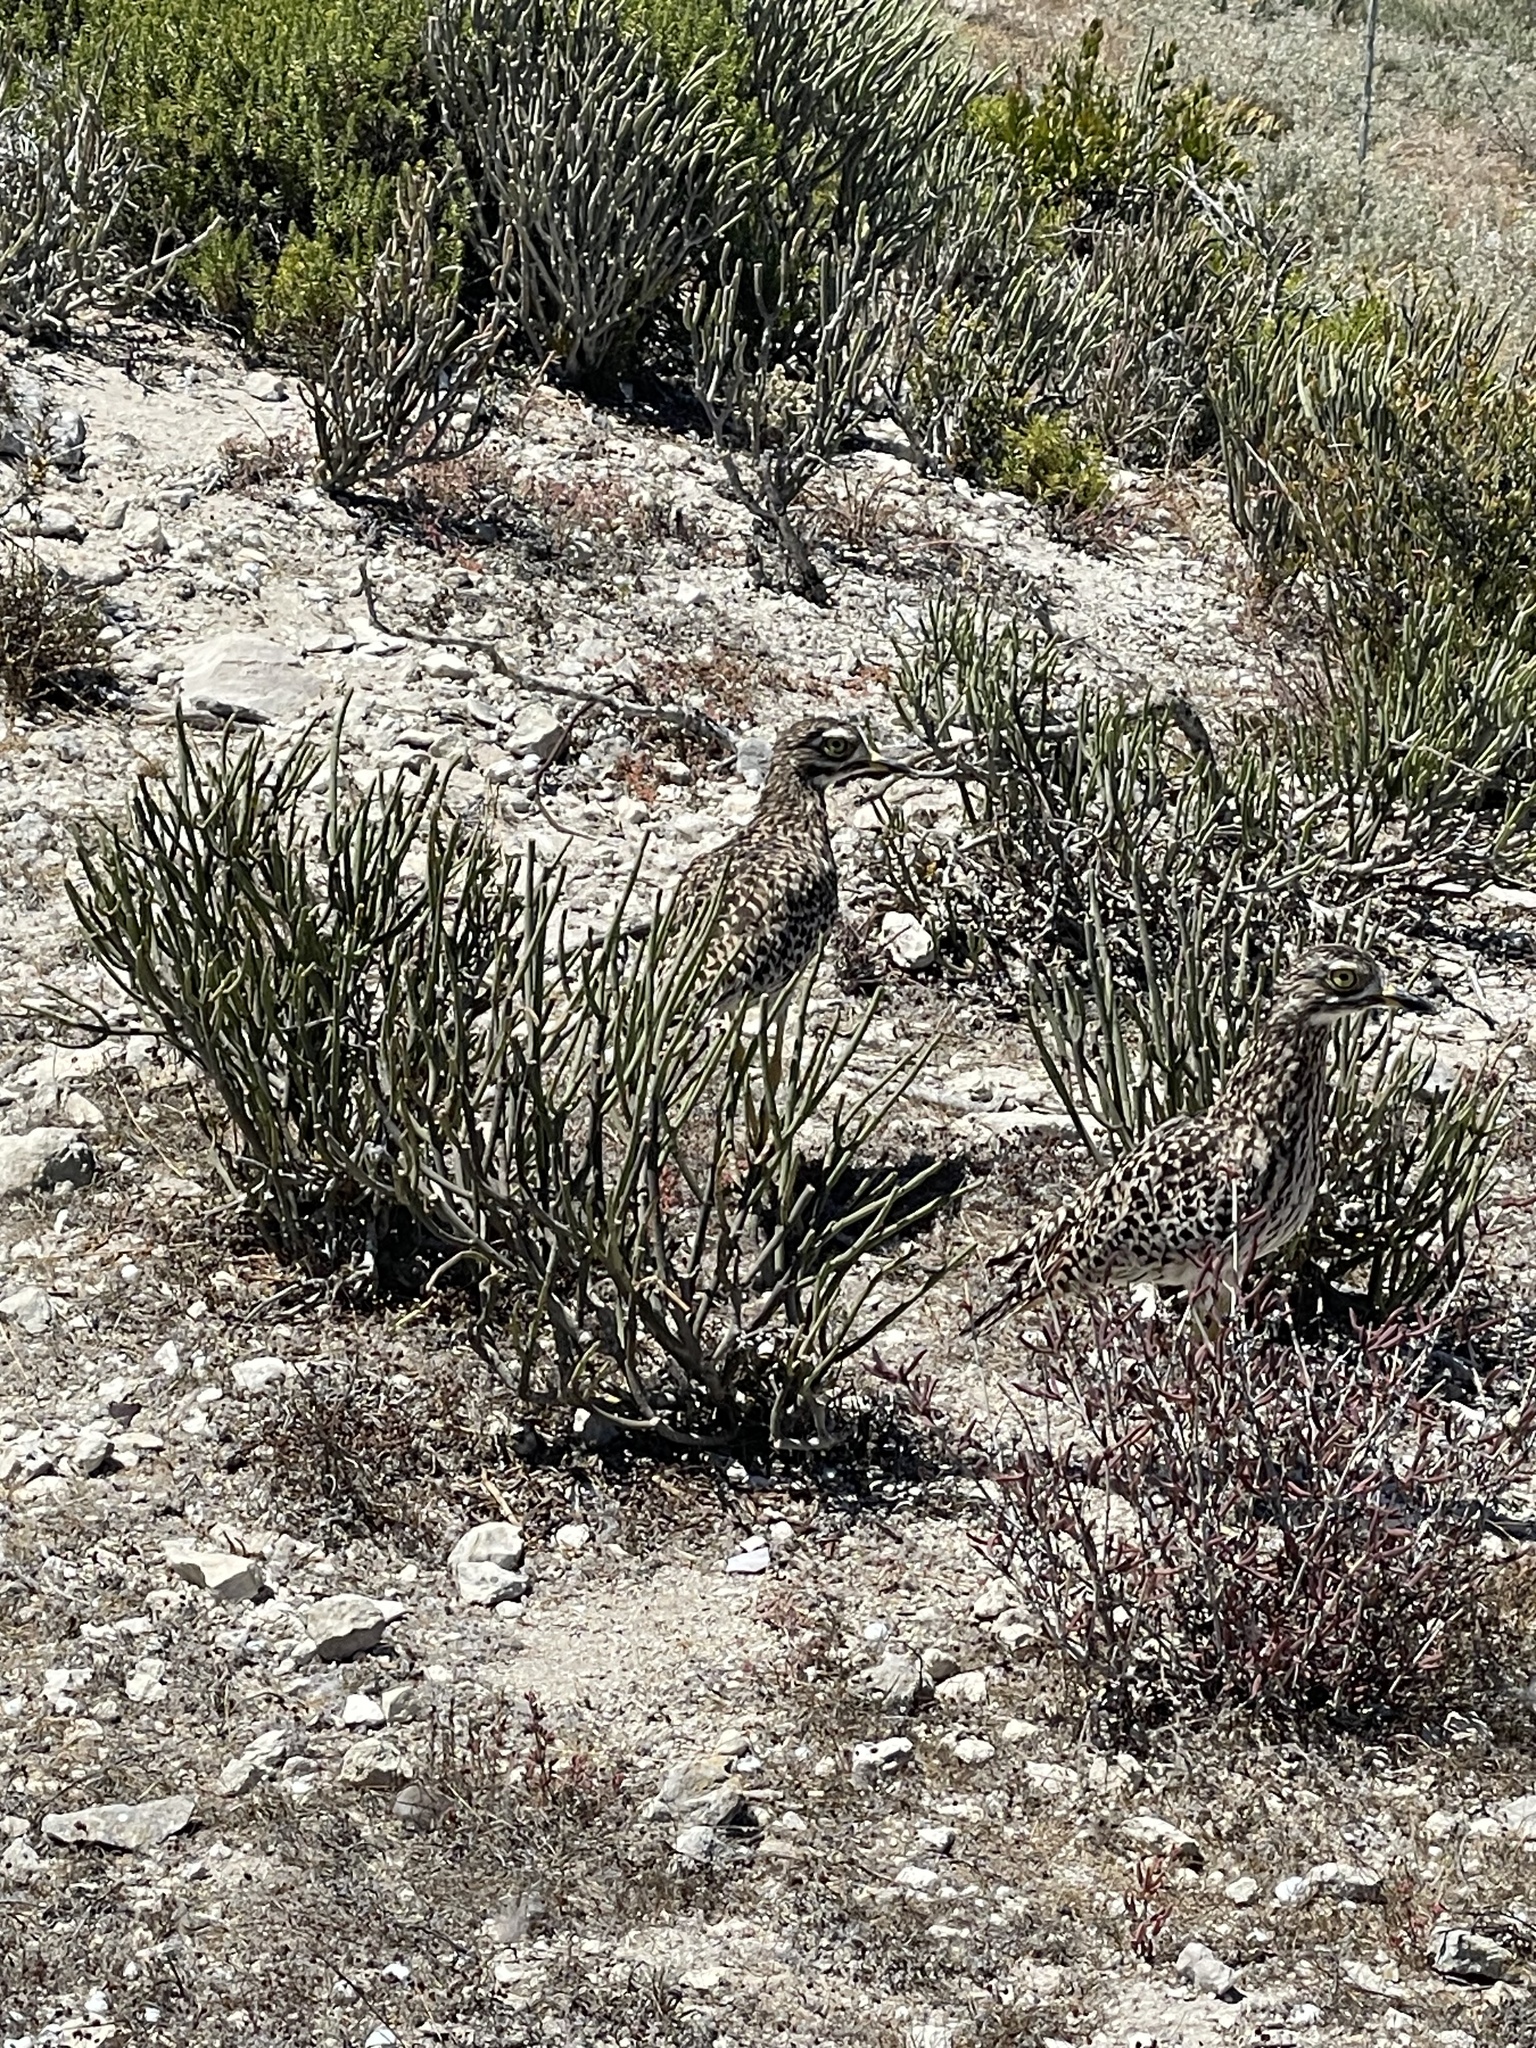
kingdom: Animalia
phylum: Chordata
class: Aves
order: Charadriiformes
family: Burhinidae
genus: Burhinus
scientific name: Burhinus capensis
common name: Spotted thick-knee
